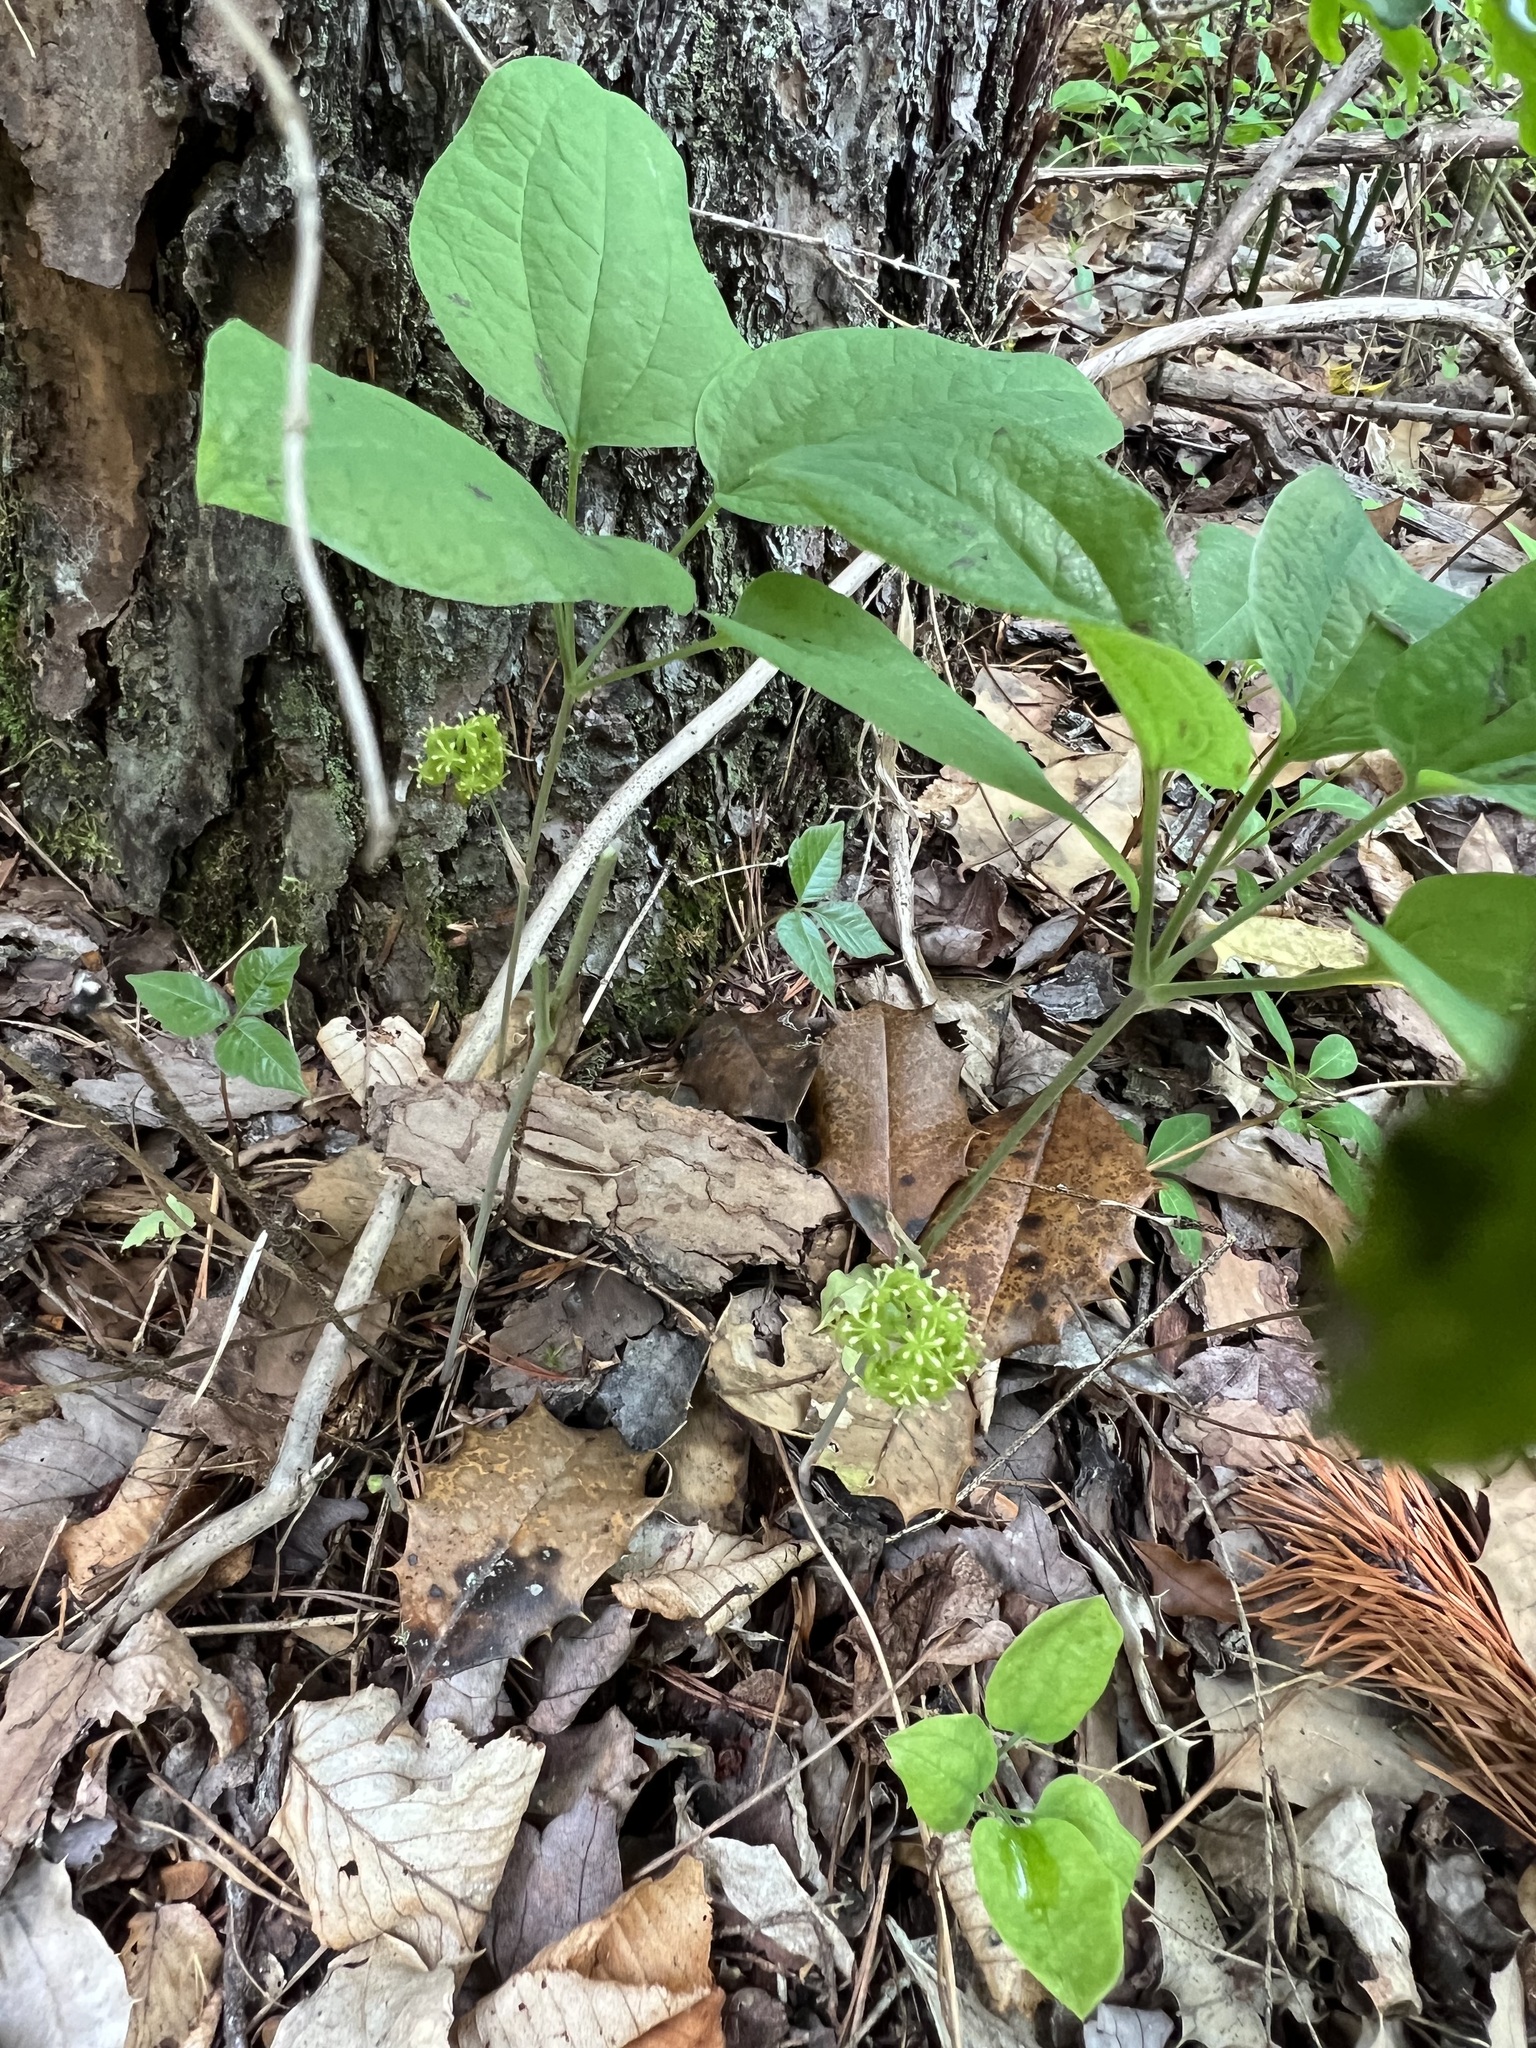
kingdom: Plantae
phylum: Tracheophyta
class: Liliopsida
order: Liliales
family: Smilacaceae
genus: Smilax
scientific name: Smilax hugeri
